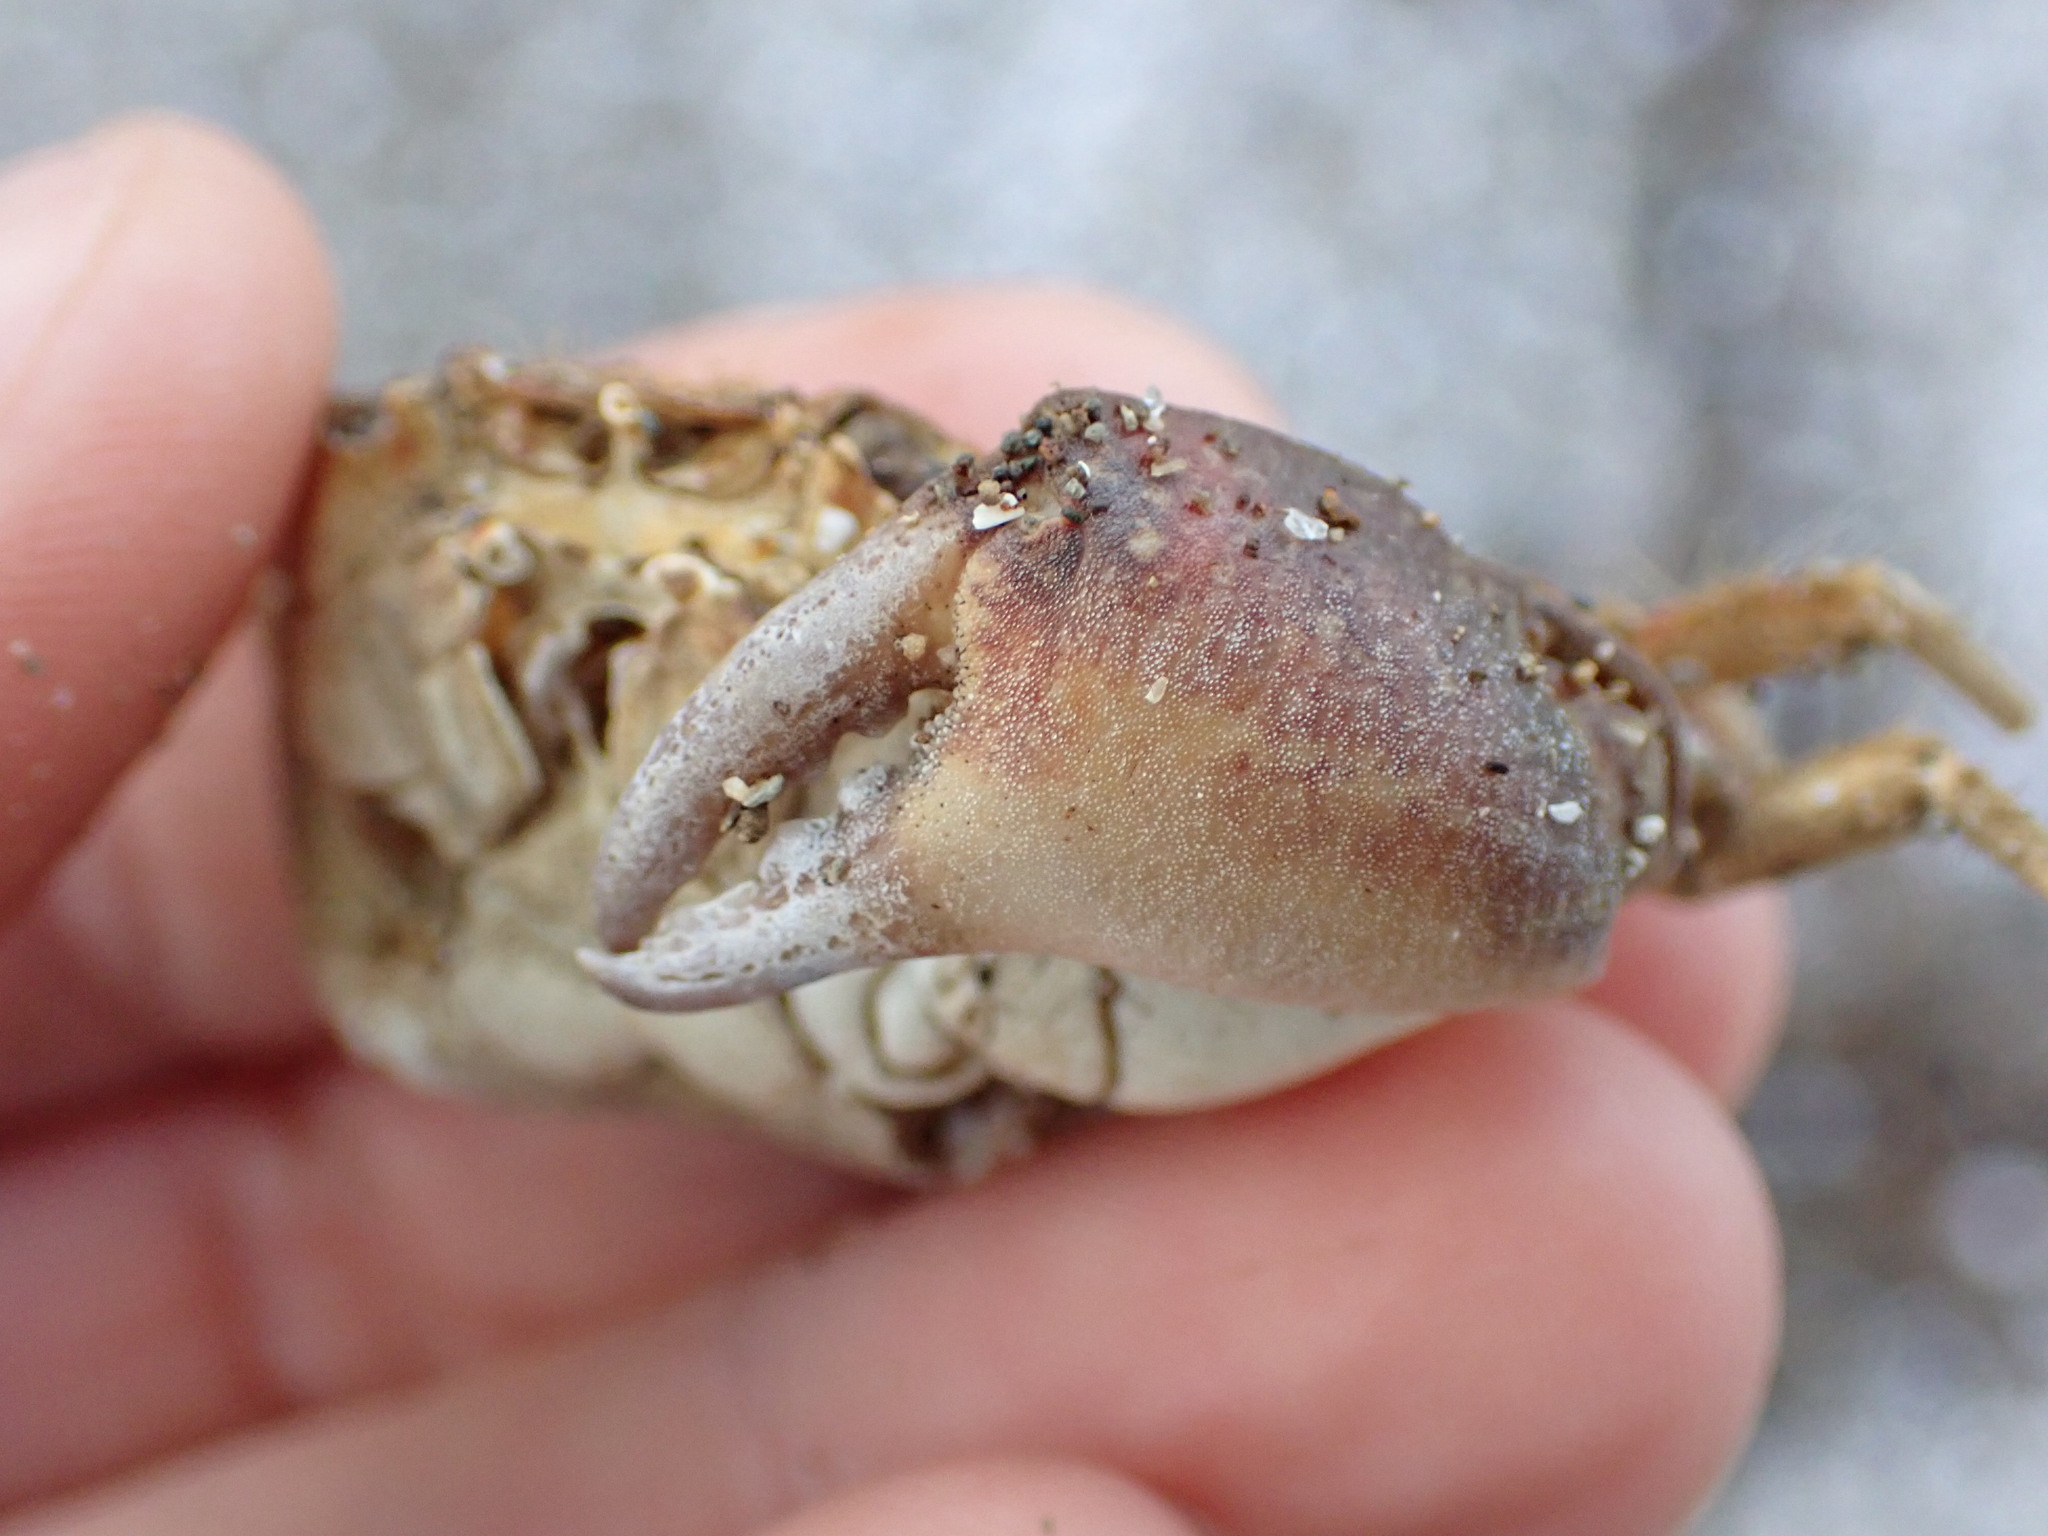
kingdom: Animalia
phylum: Arthropoda
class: Malacostraca
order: Decapoda
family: Pilumnidae
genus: Pilumnopeus
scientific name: Pilumnopeus serratifrons
